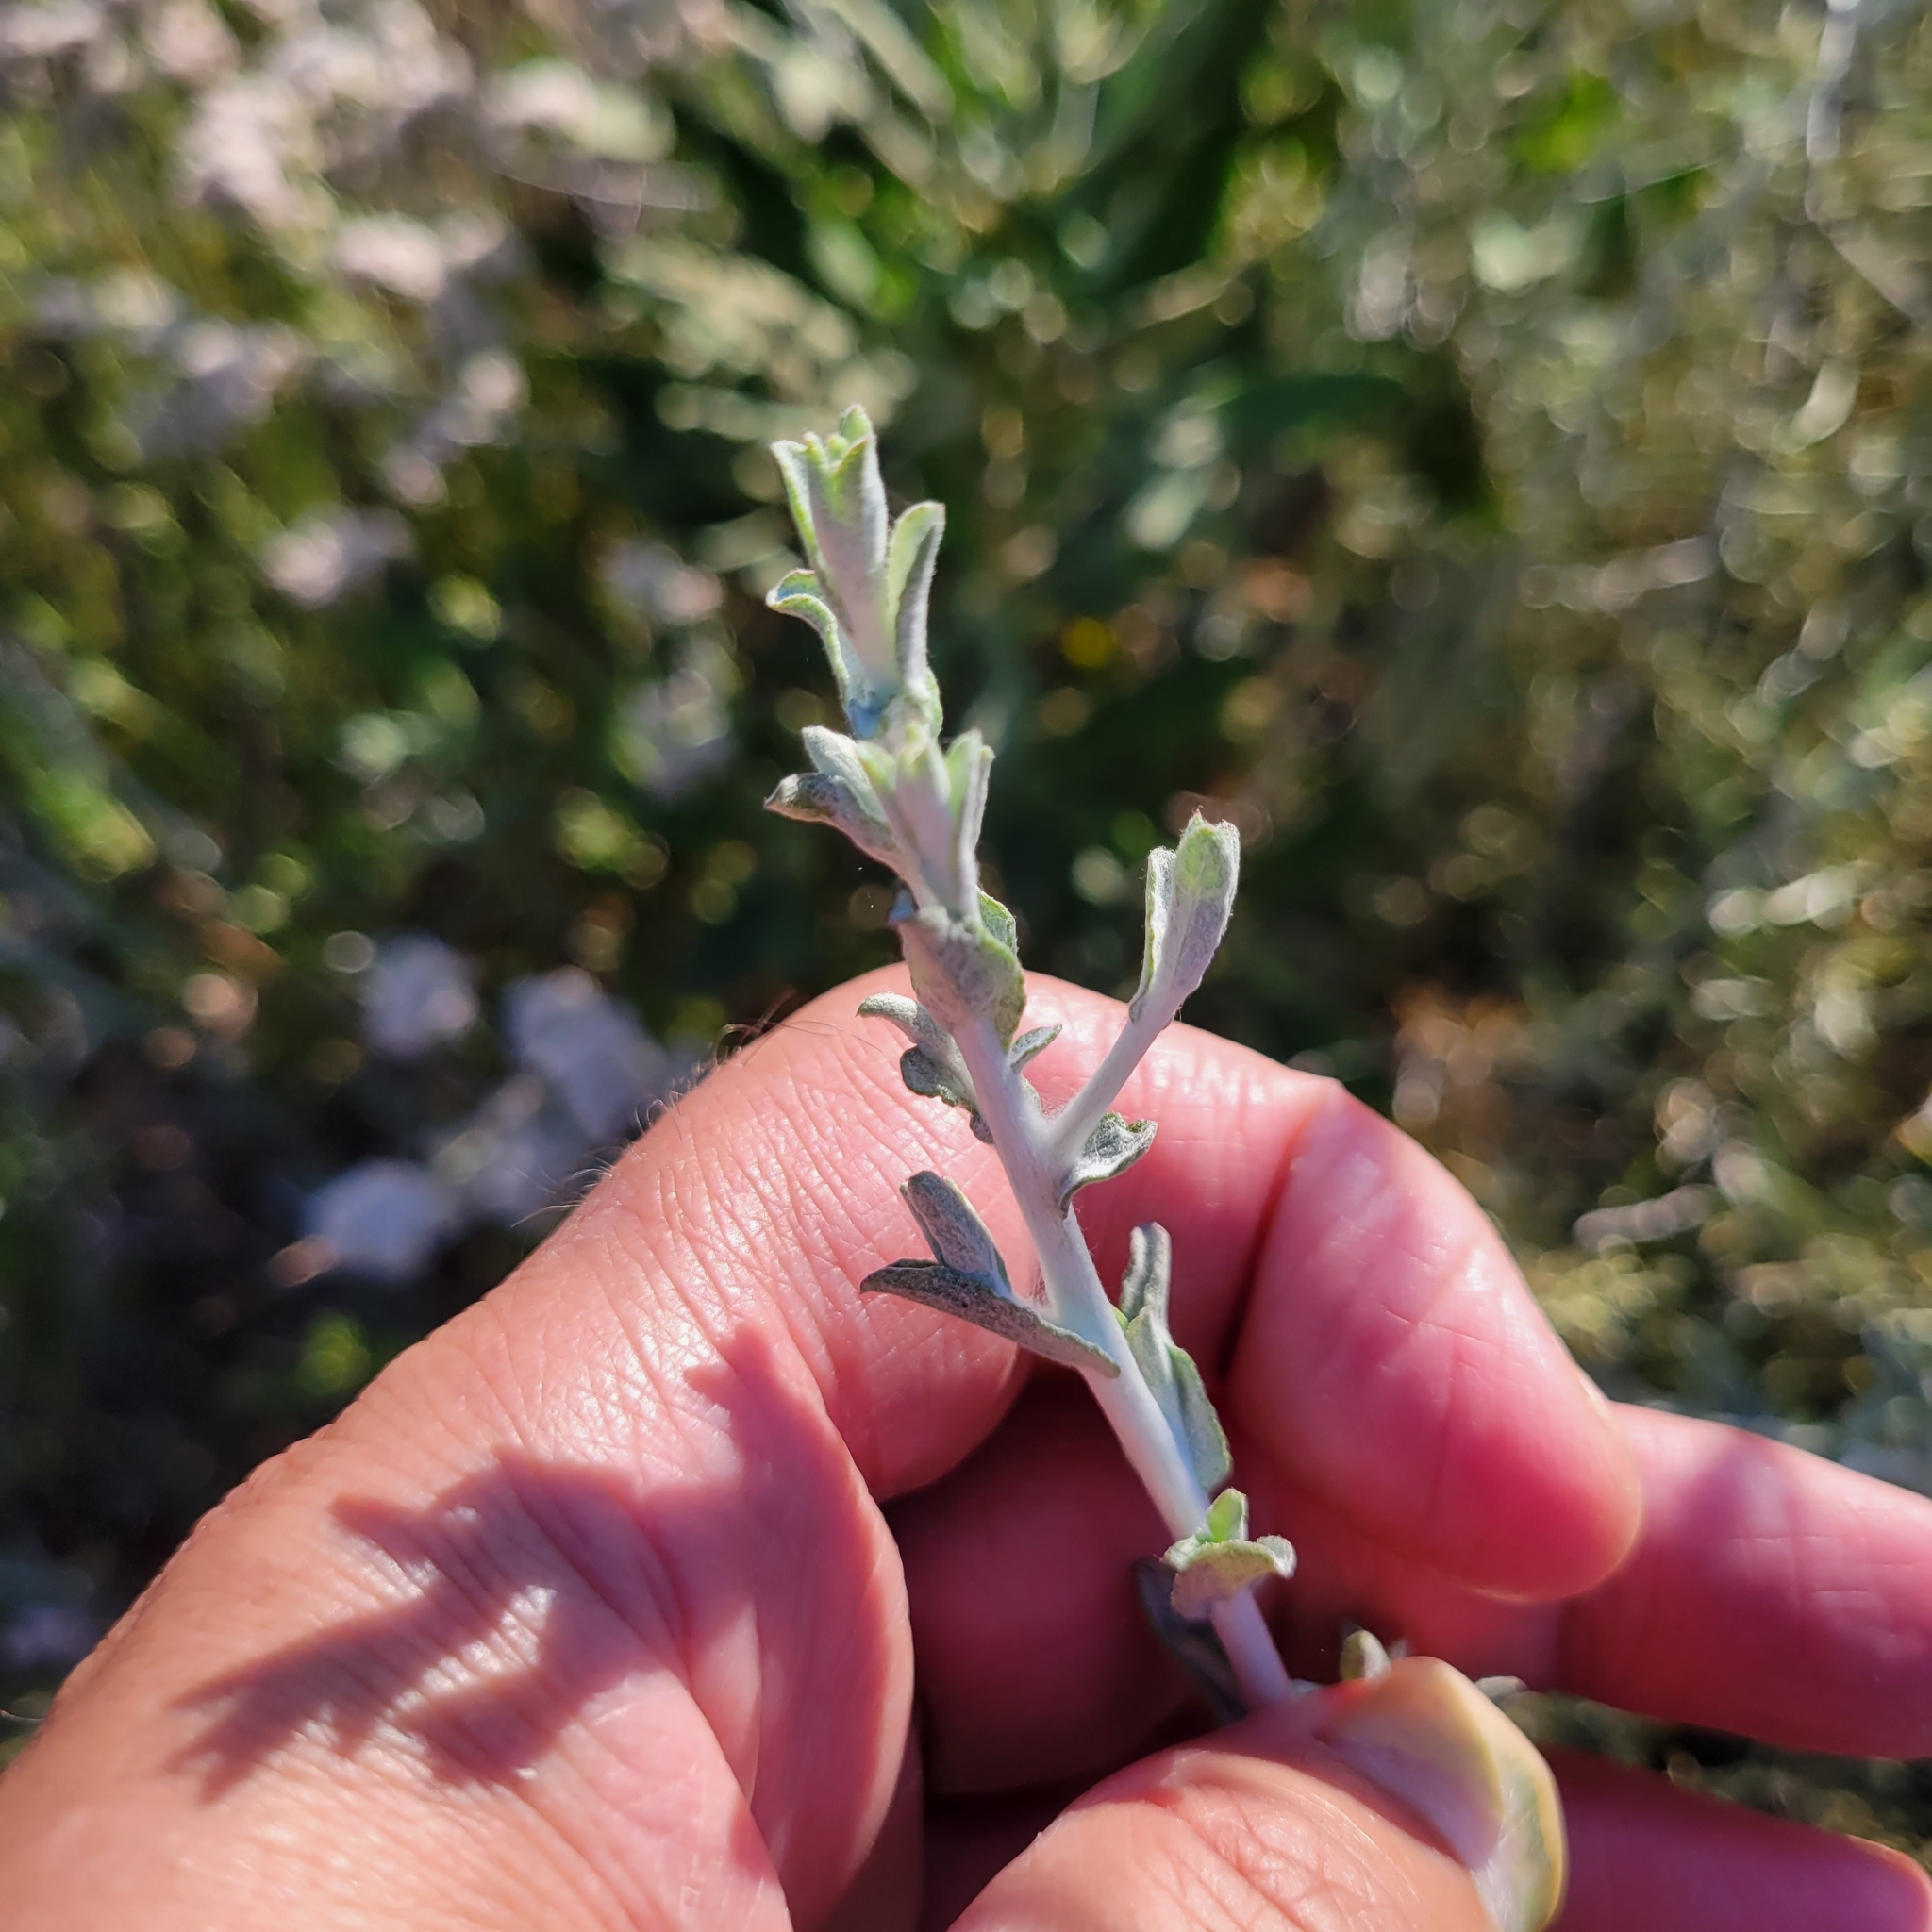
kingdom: Plantae
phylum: Tracheophyta
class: Magnoliopsida
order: Asterales
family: Asteraceae
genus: Corethrogyne
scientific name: Corethrogyne filaginifolia
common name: Sand-aster
